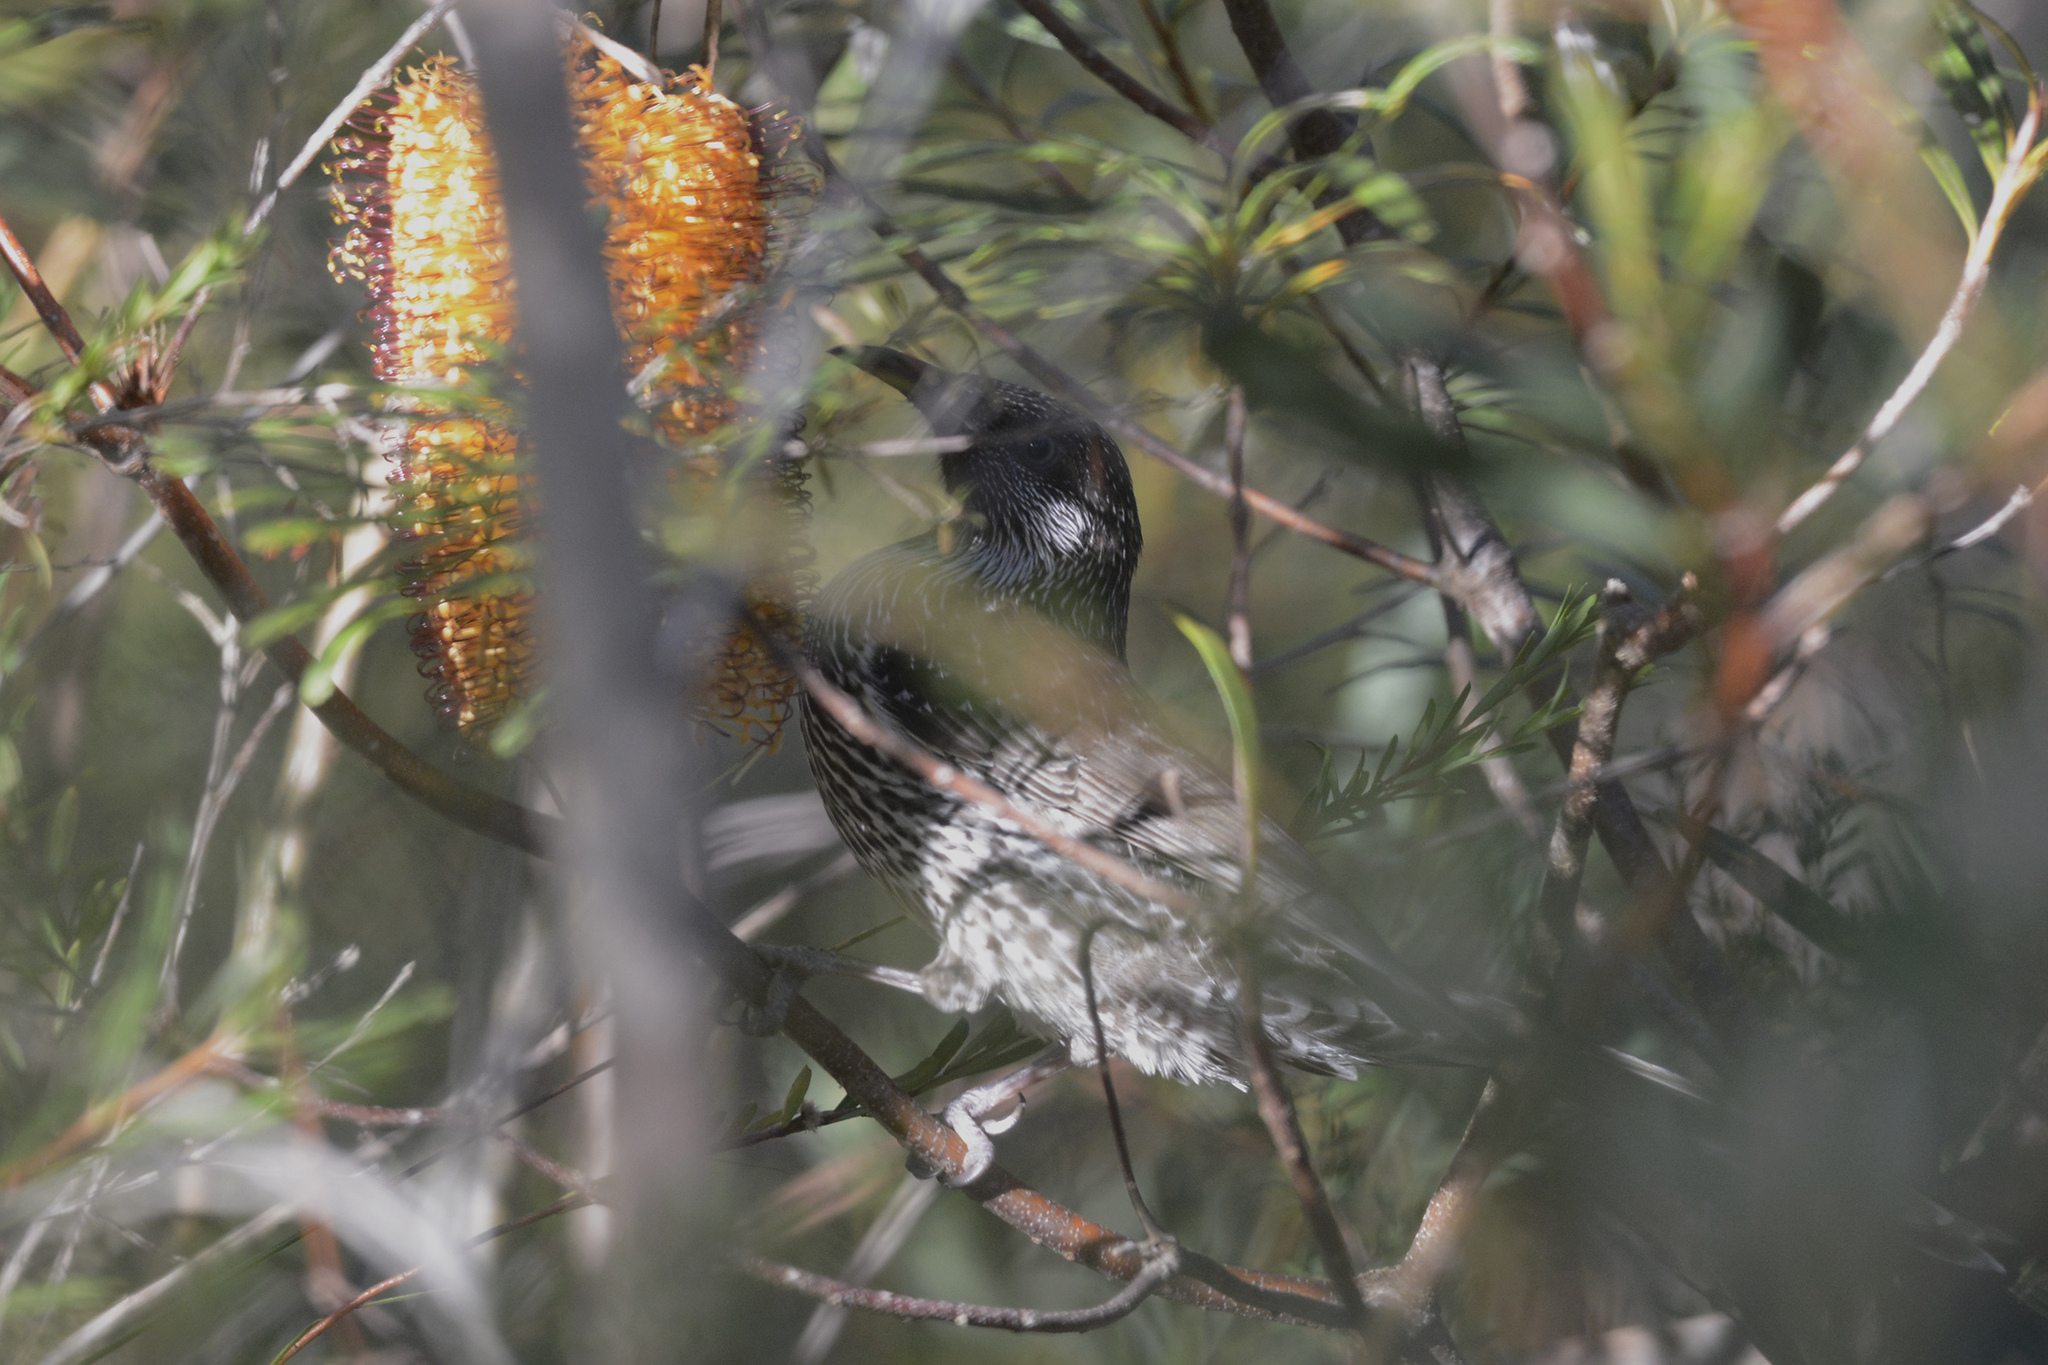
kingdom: Animalia
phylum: Chordata
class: Aves
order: Passeriformes
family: Meliphagidae
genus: Anthochaera
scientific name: Anthochaera chrysoptera
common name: Little wattlebird
